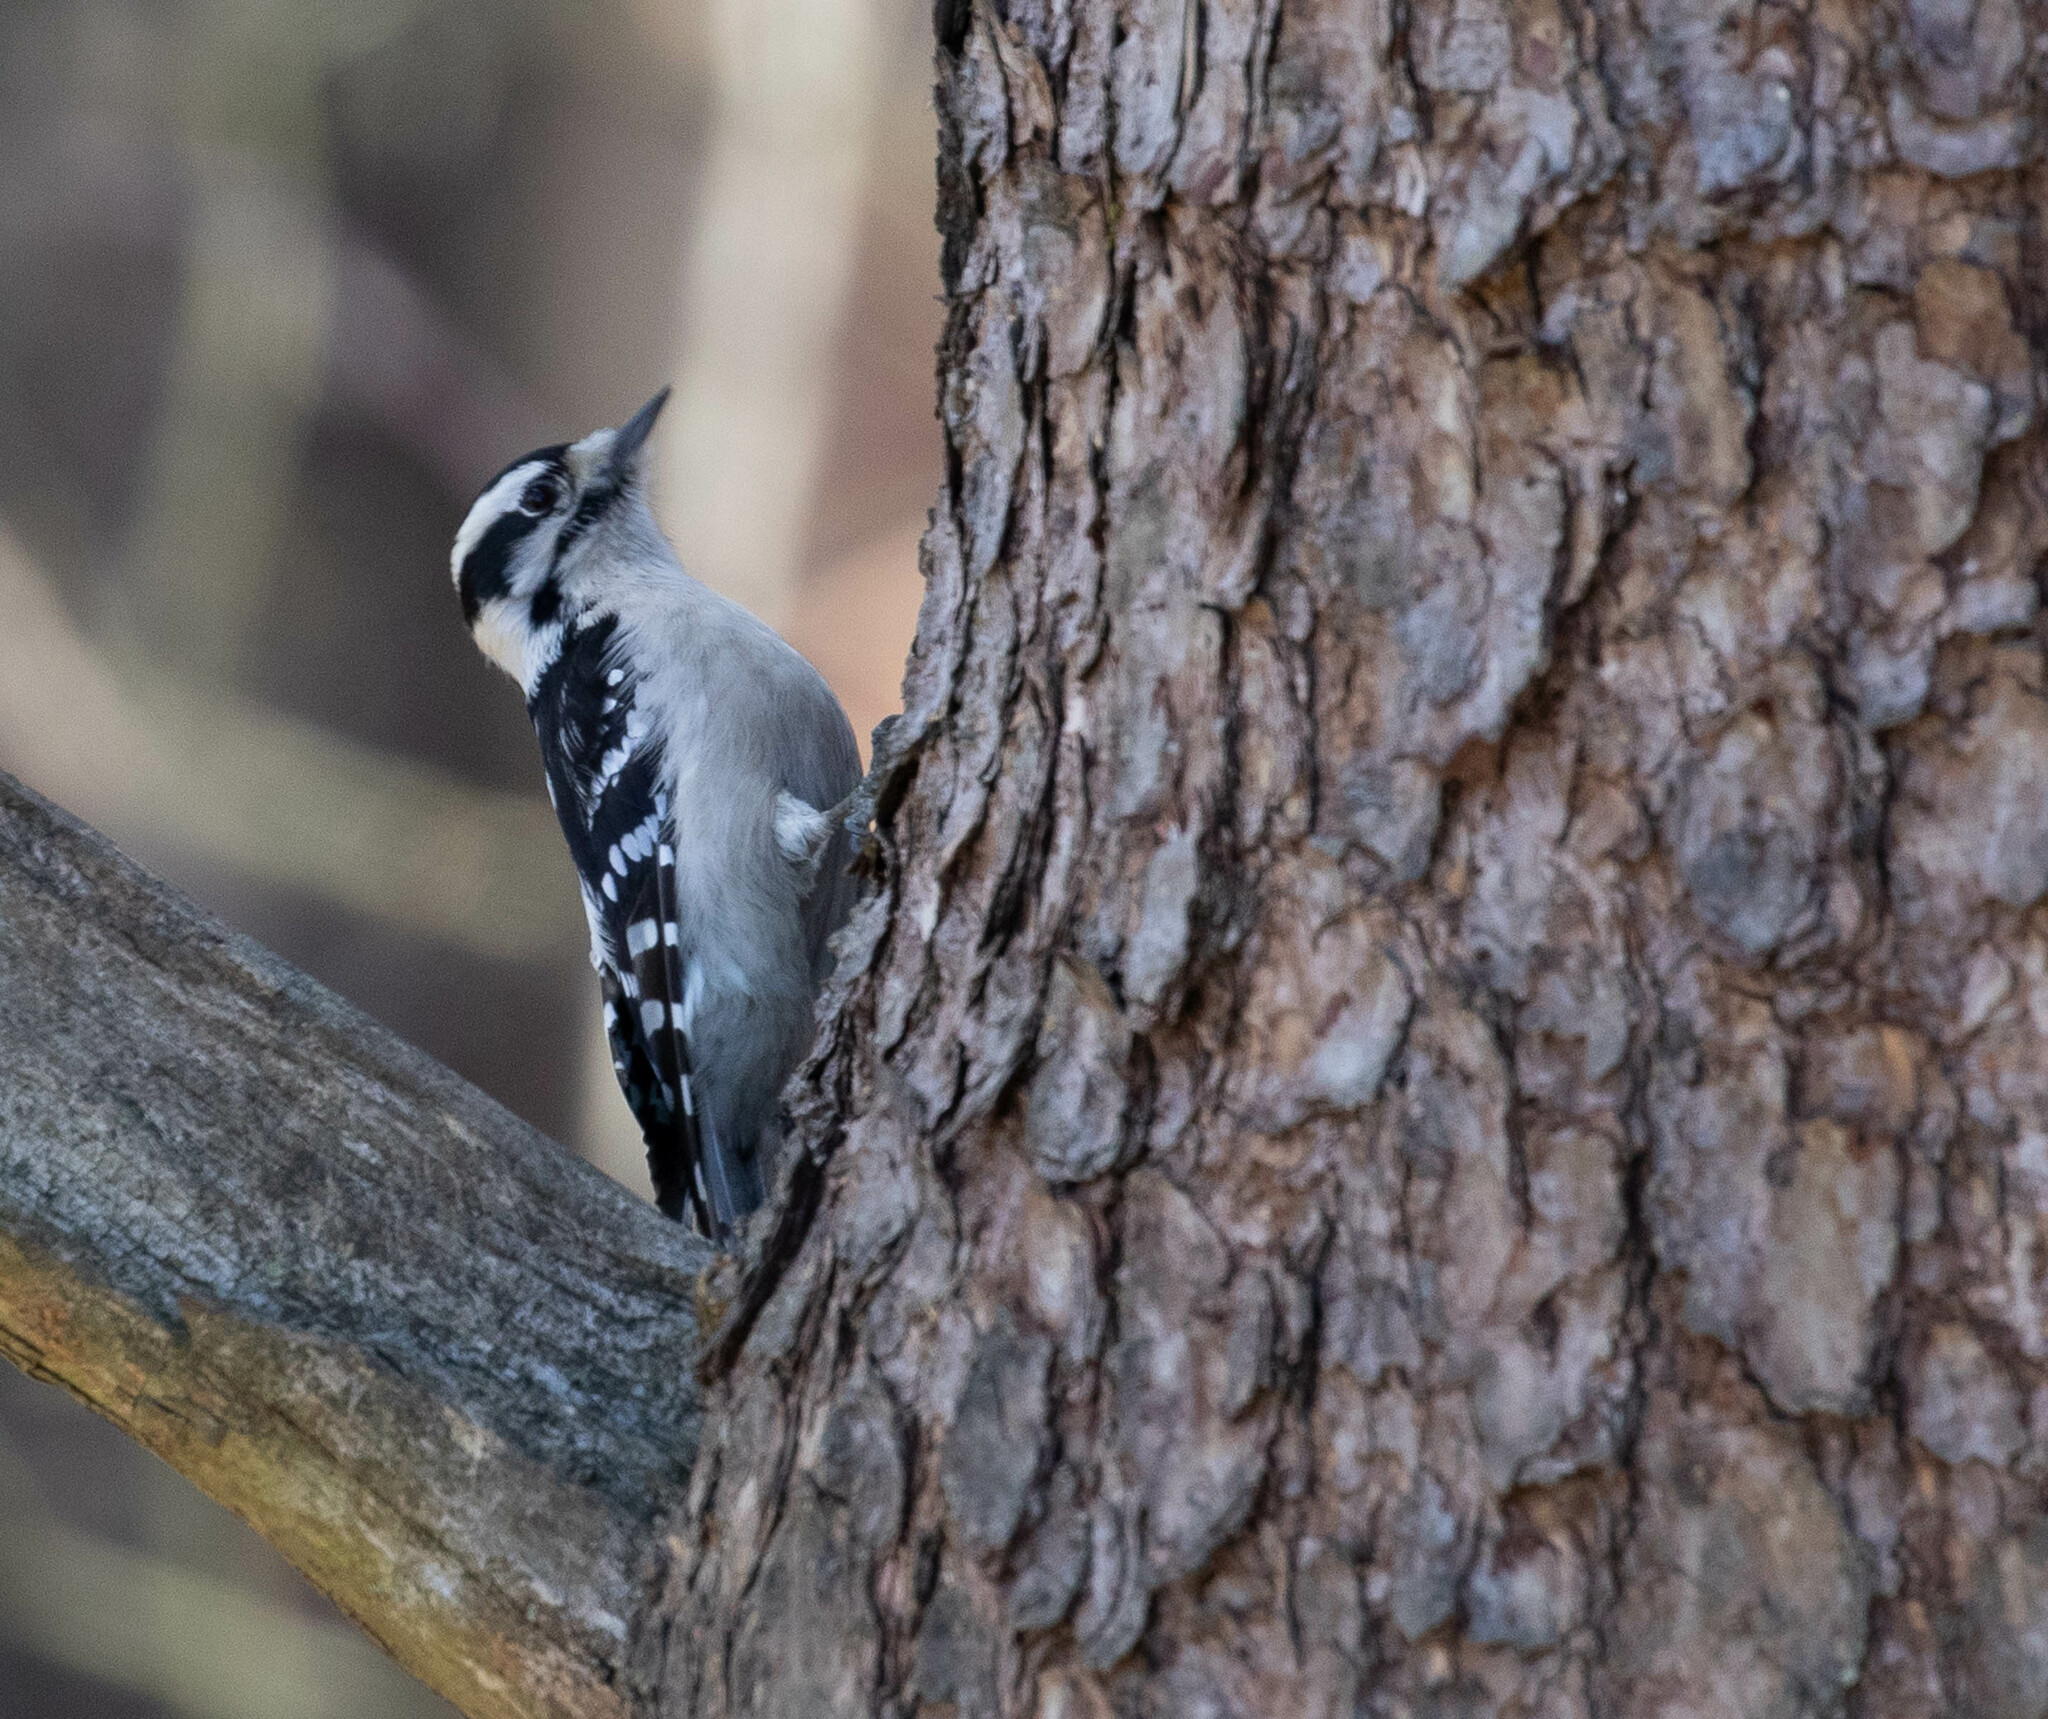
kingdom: Animalia
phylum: Chordata
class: Aves
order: Piciformes
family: Picidae
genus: Dryobates
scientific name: Dryobates pubescens
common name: Downy woodpecker
